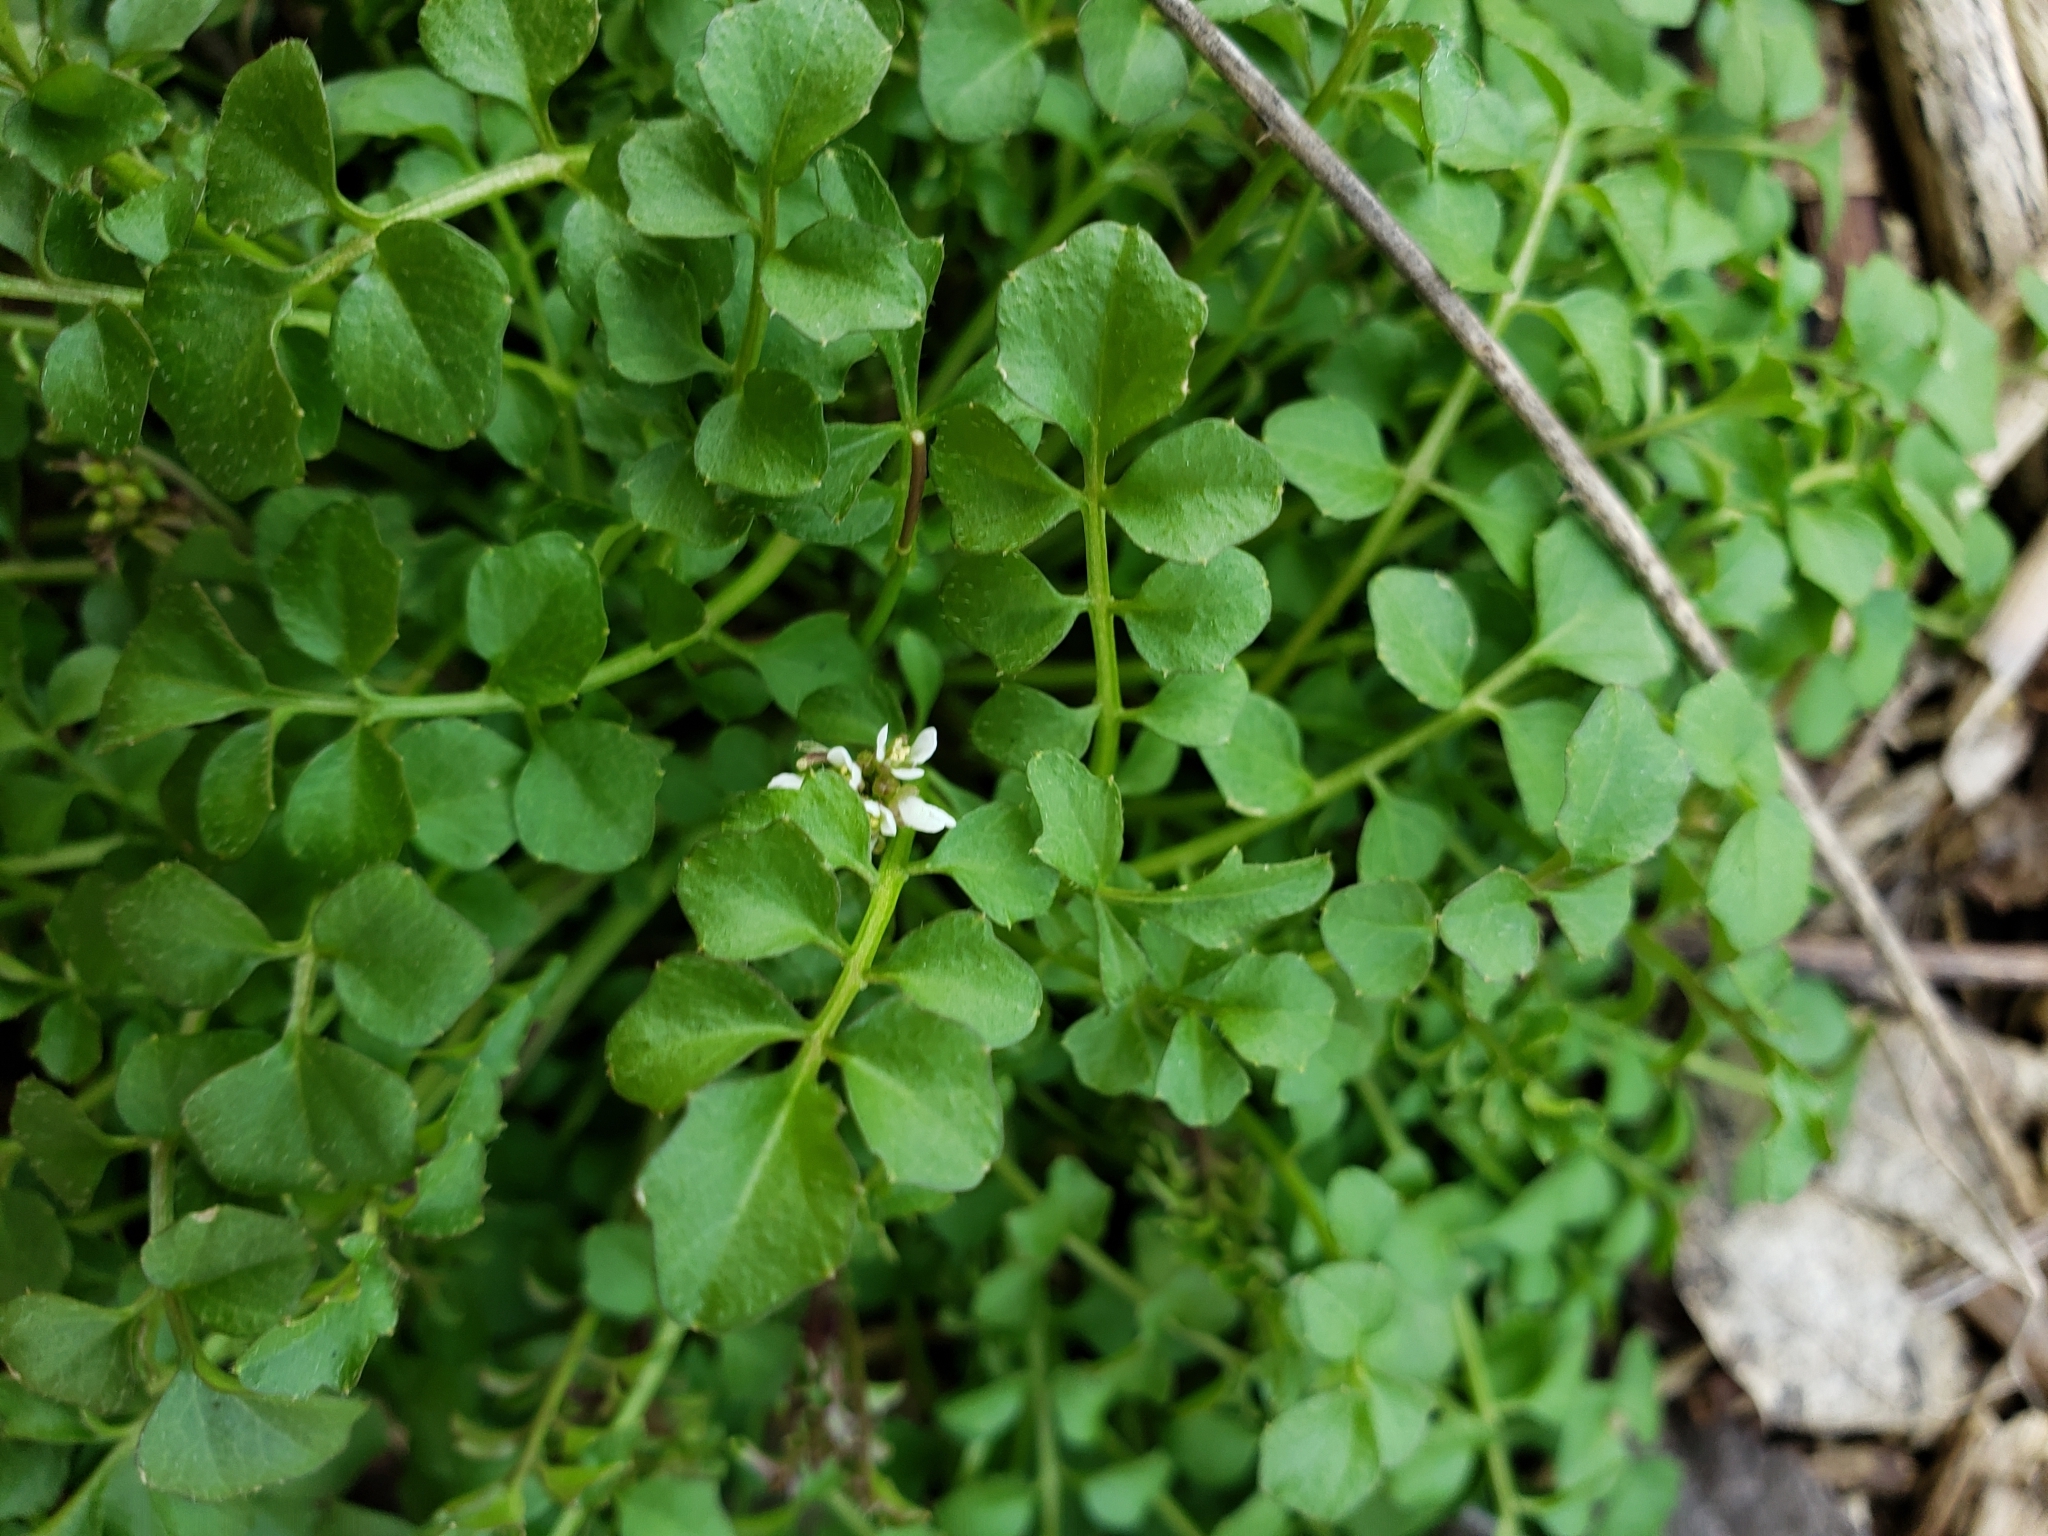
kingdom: Plantae
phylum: Tracheophyta
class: Magnoliopsida
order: Brassicales
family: Brassicaceae
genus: Cardamine
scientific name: Cardamine hirsuta
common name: Hairy bittercress
